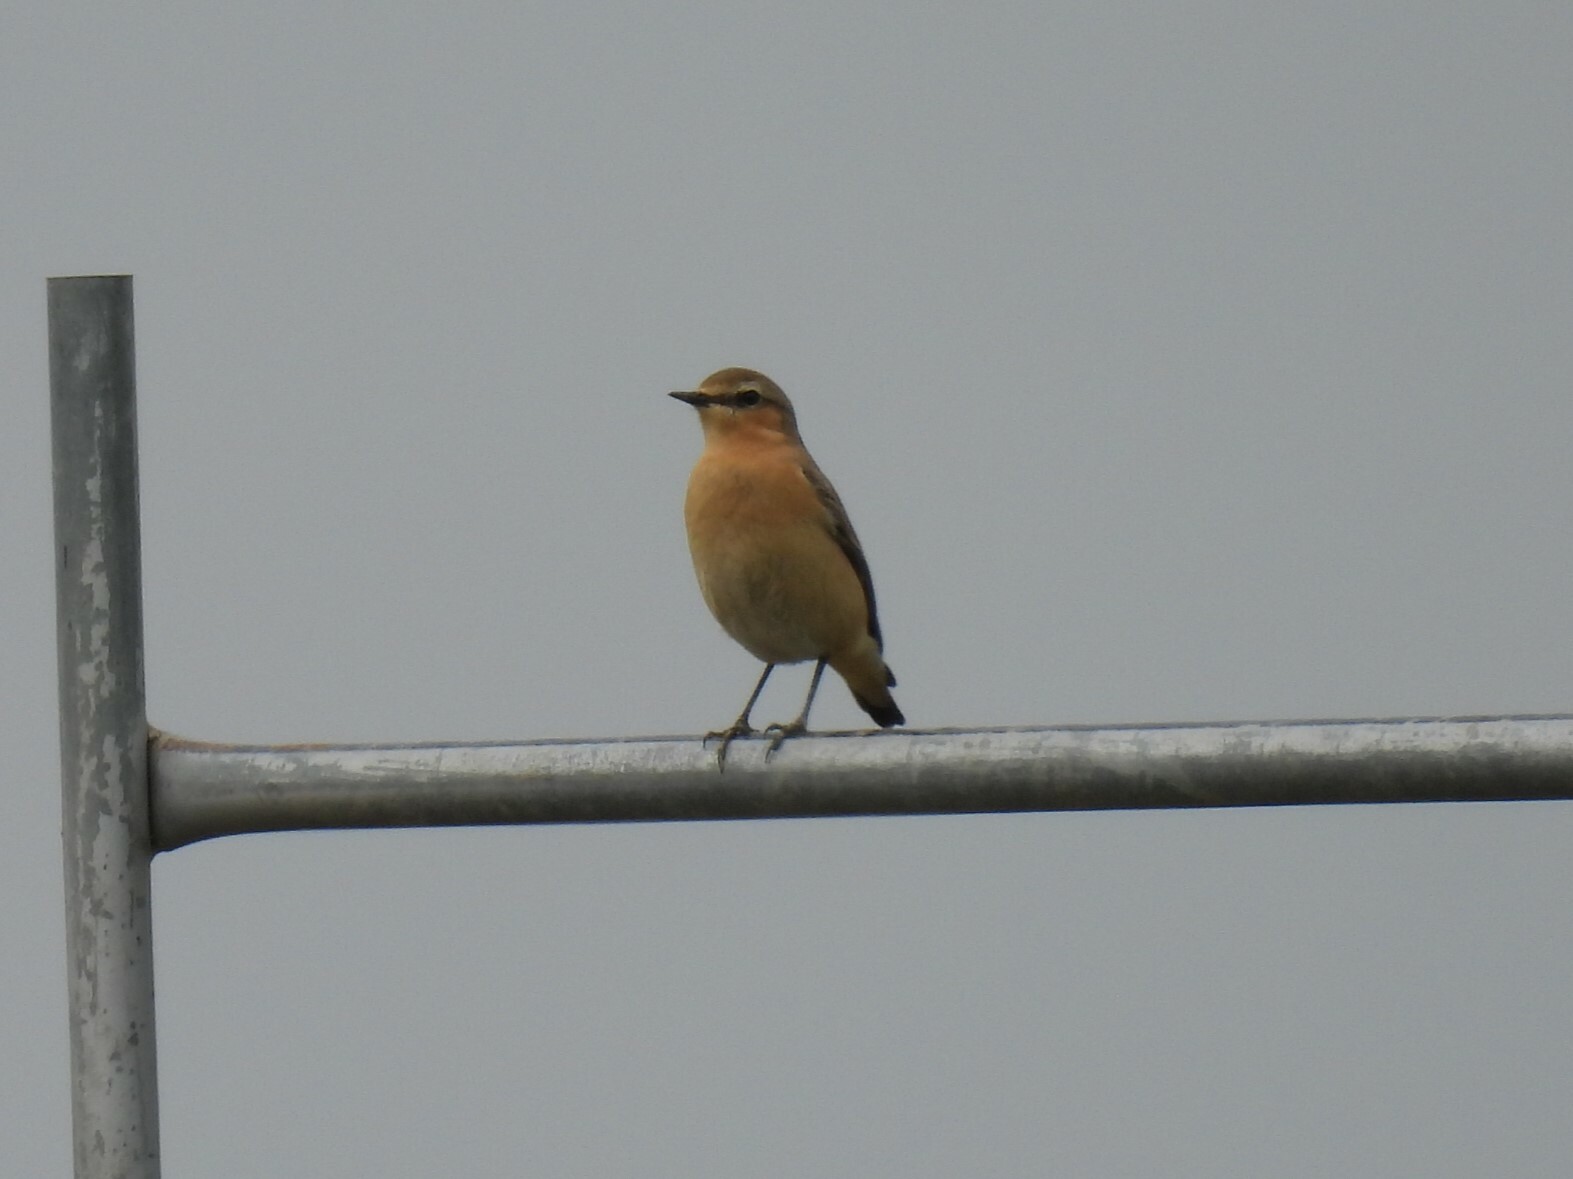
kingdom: Animalia
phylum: Chordata
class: Aves
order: Passeriformes
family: Muscicapidae
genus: Oenanthe
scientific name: Oenanthe oenanthe
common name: Northern wheatear
